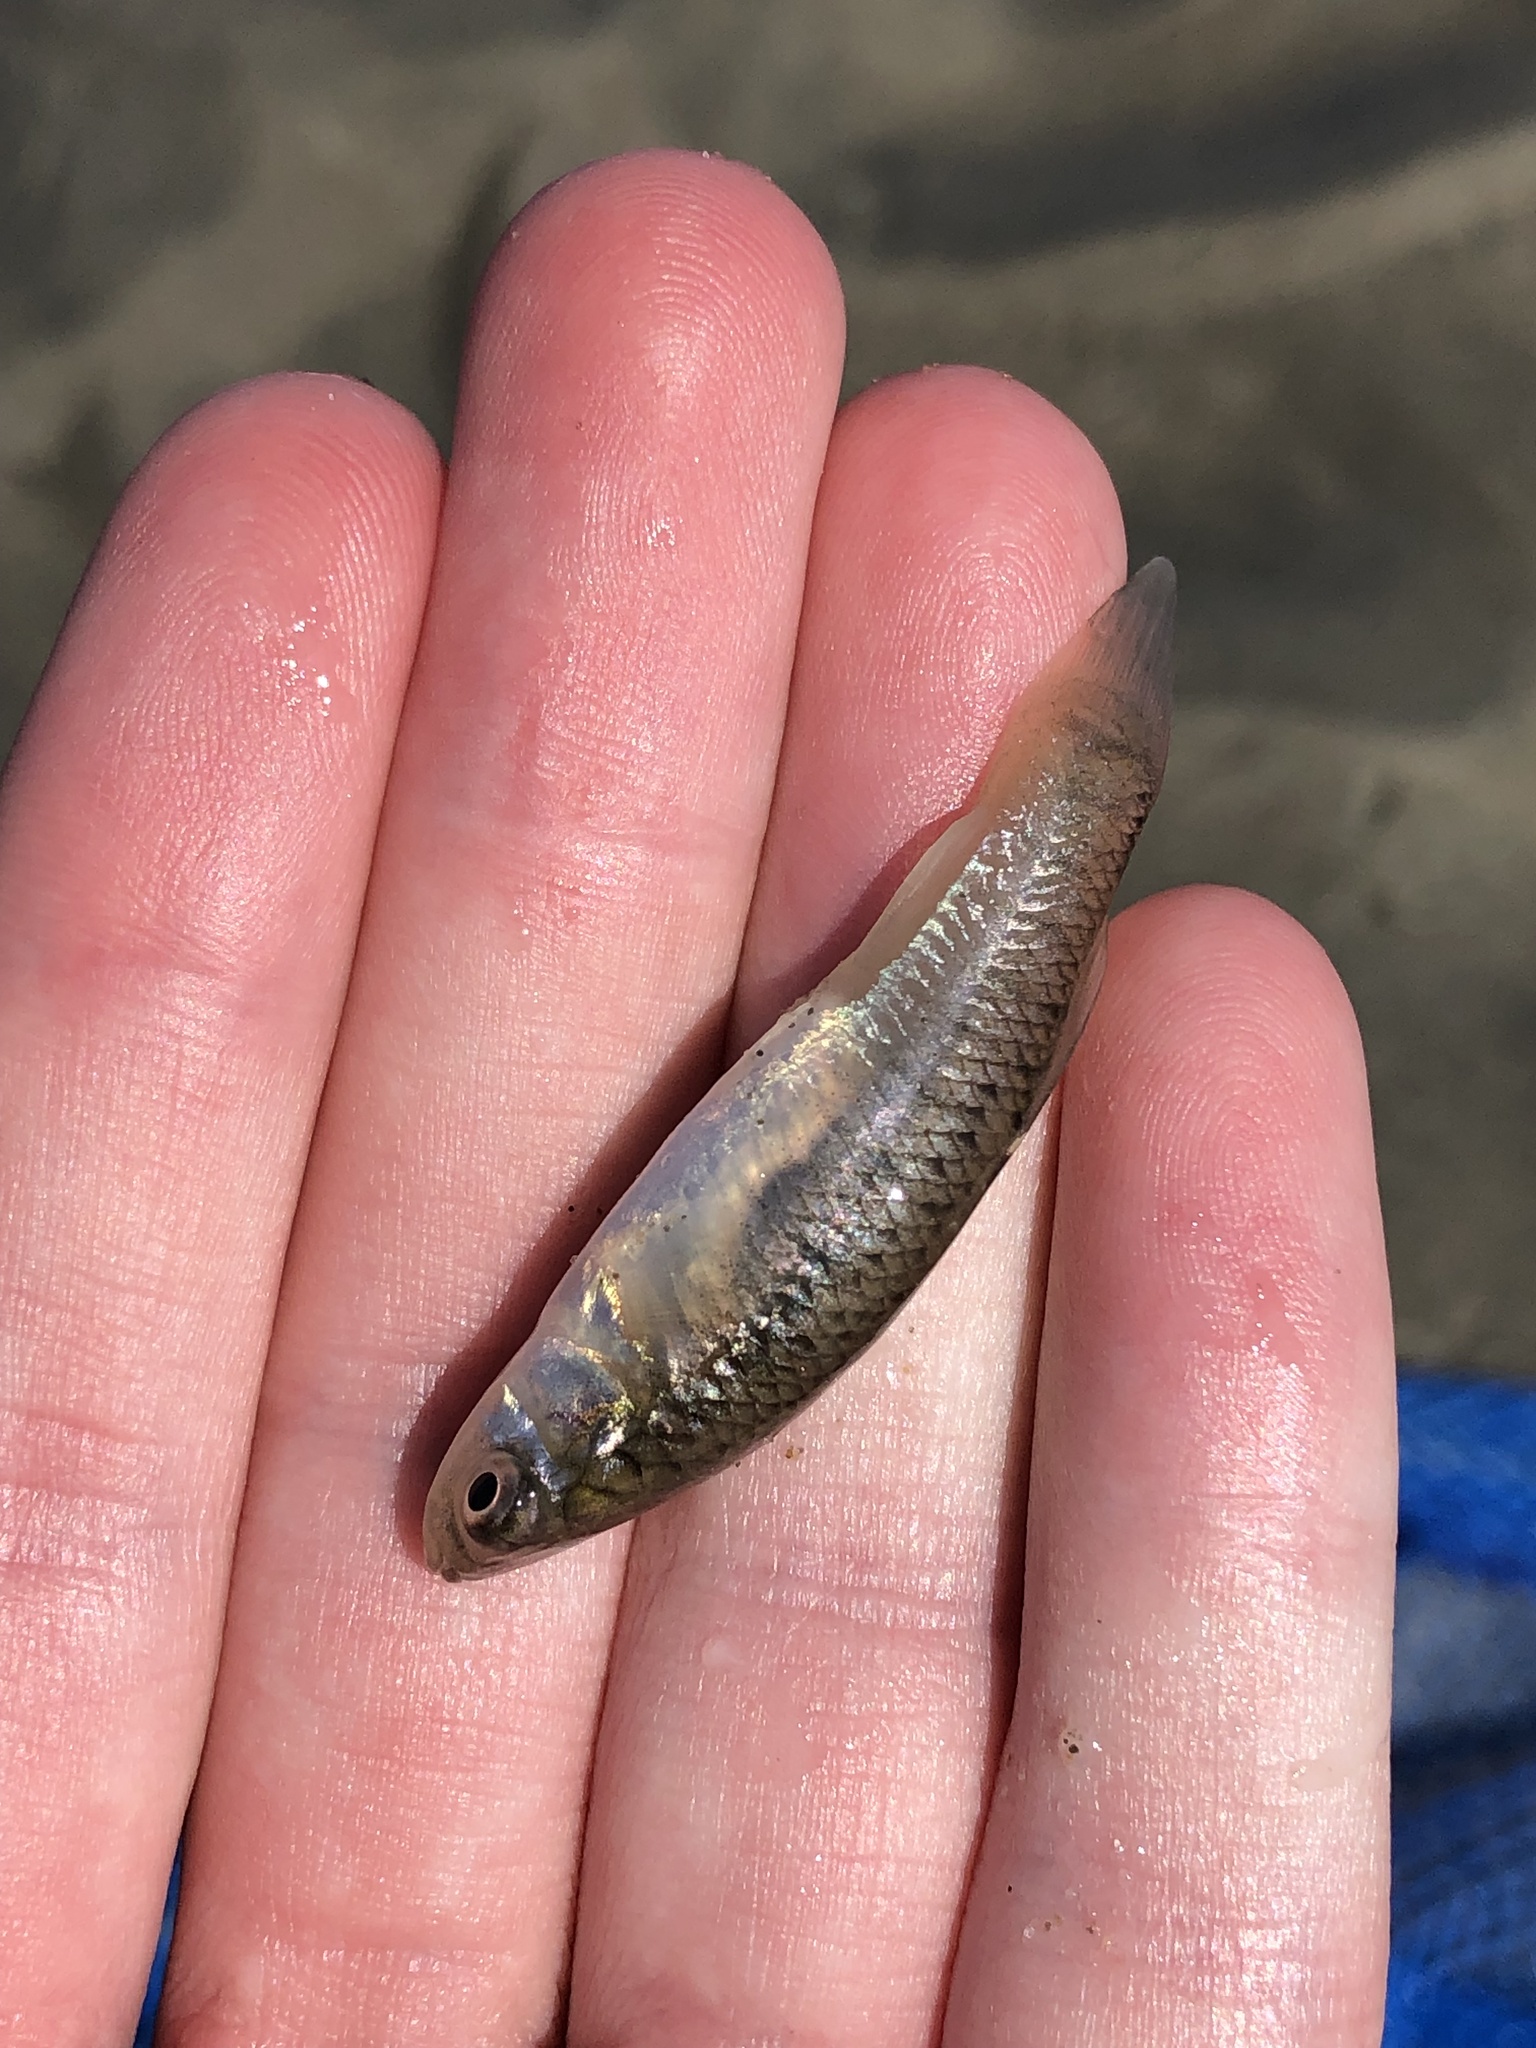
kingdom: Animalia
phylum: Chordata
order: Cyprinodontiformes
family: Fundulidae
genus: Fundulus
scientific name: Fundulus heteroclitus
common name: Mummichog
